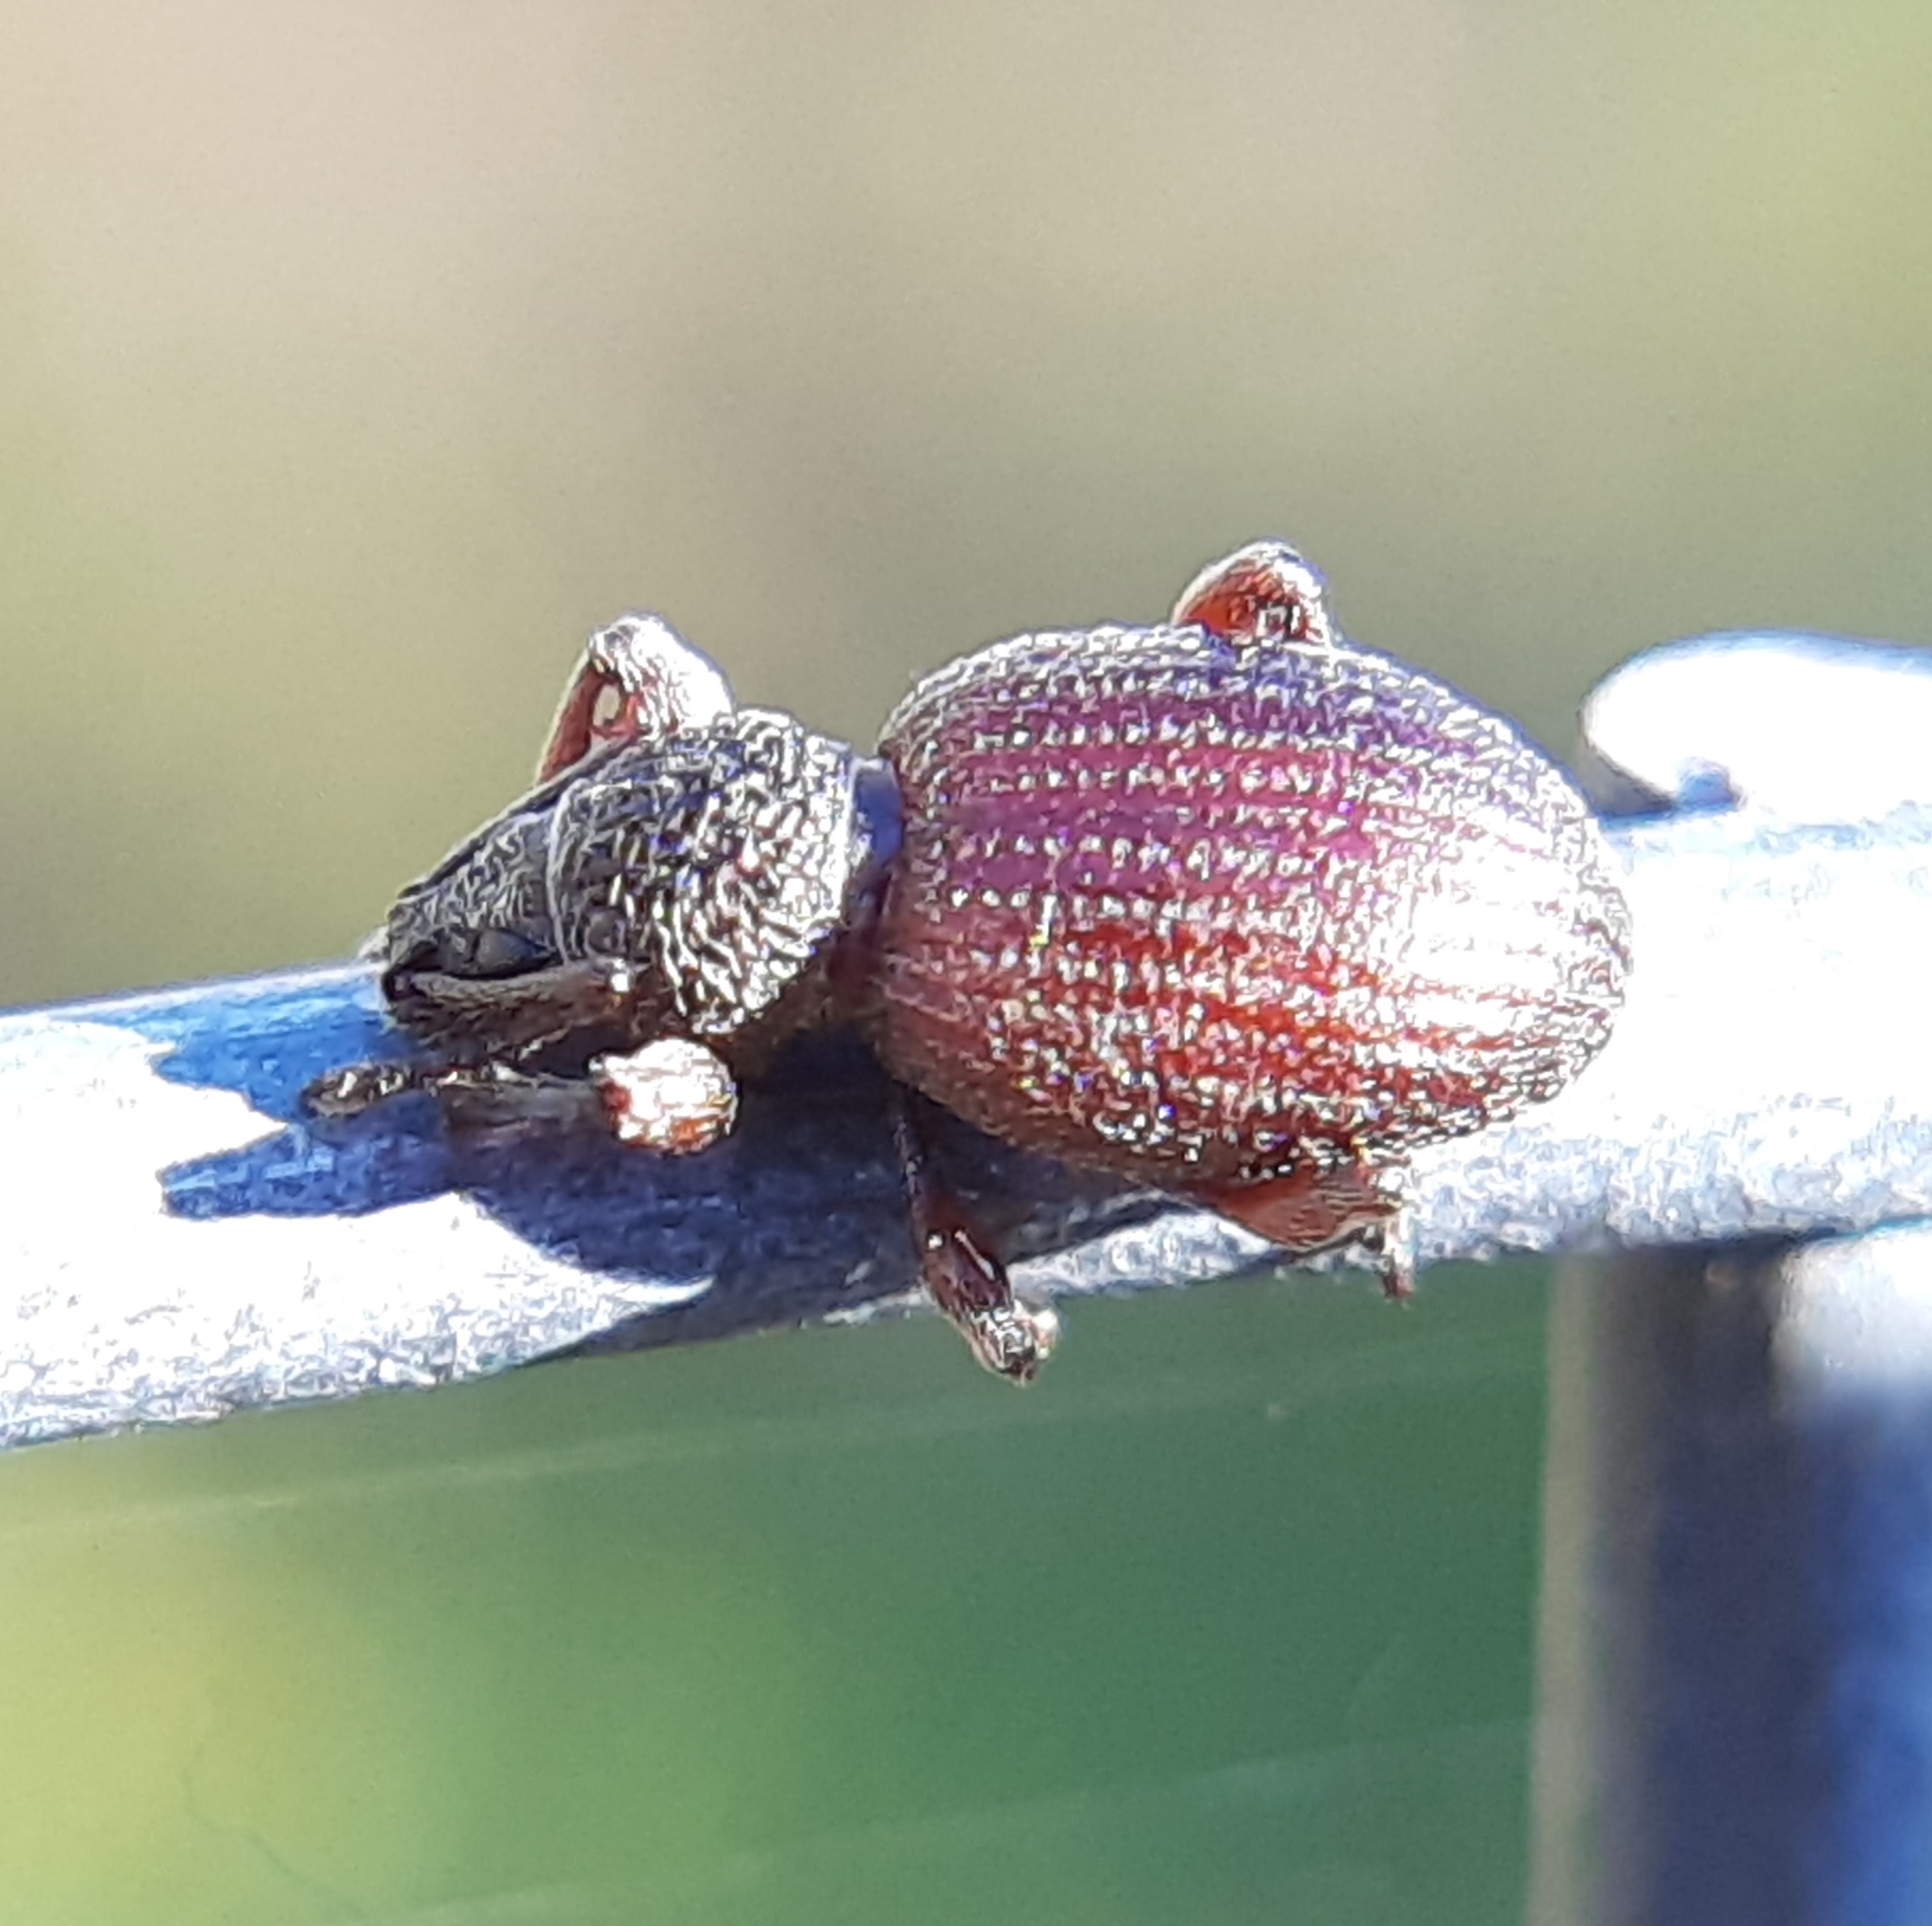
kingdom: Animalia
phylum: Arthropoda
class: Insecta
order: Coleoptera
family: Curculionidae
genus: Otiorhynchus
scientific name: Otiorhynchus ovatus
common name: Strawberry root weevil
